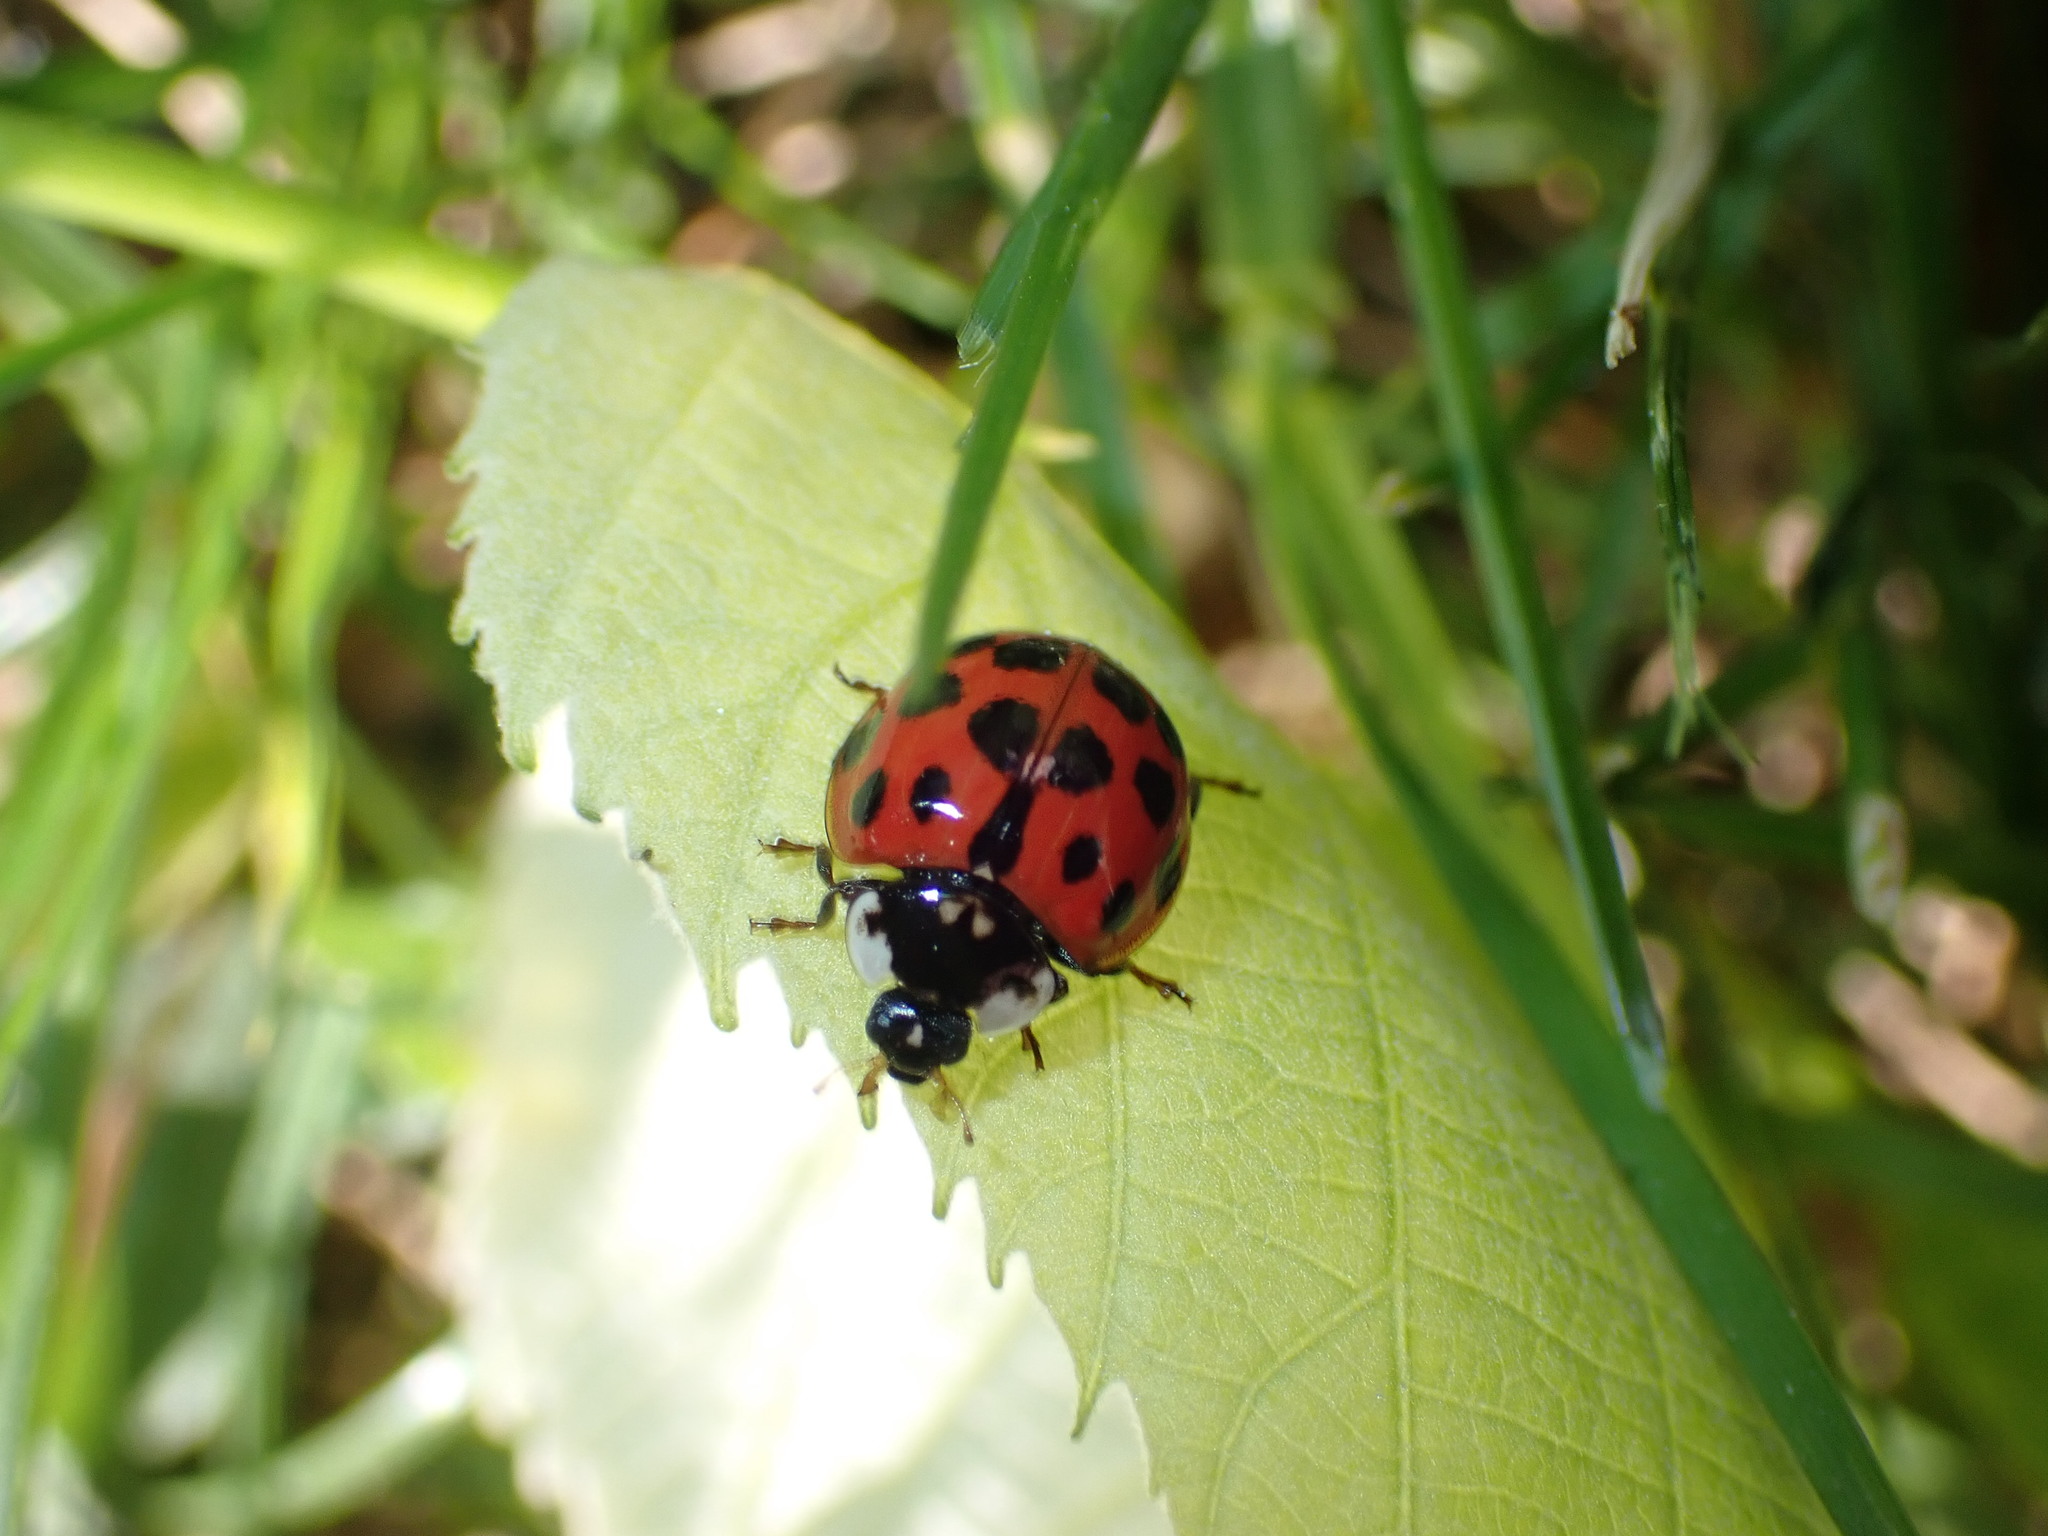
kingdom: Animalia
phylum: Arthropoda
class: Insecta
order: Coleoptera
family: Coccinellidae
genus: Harmonia
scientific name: Harmonia axyridis
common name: Harlequin ladybird
